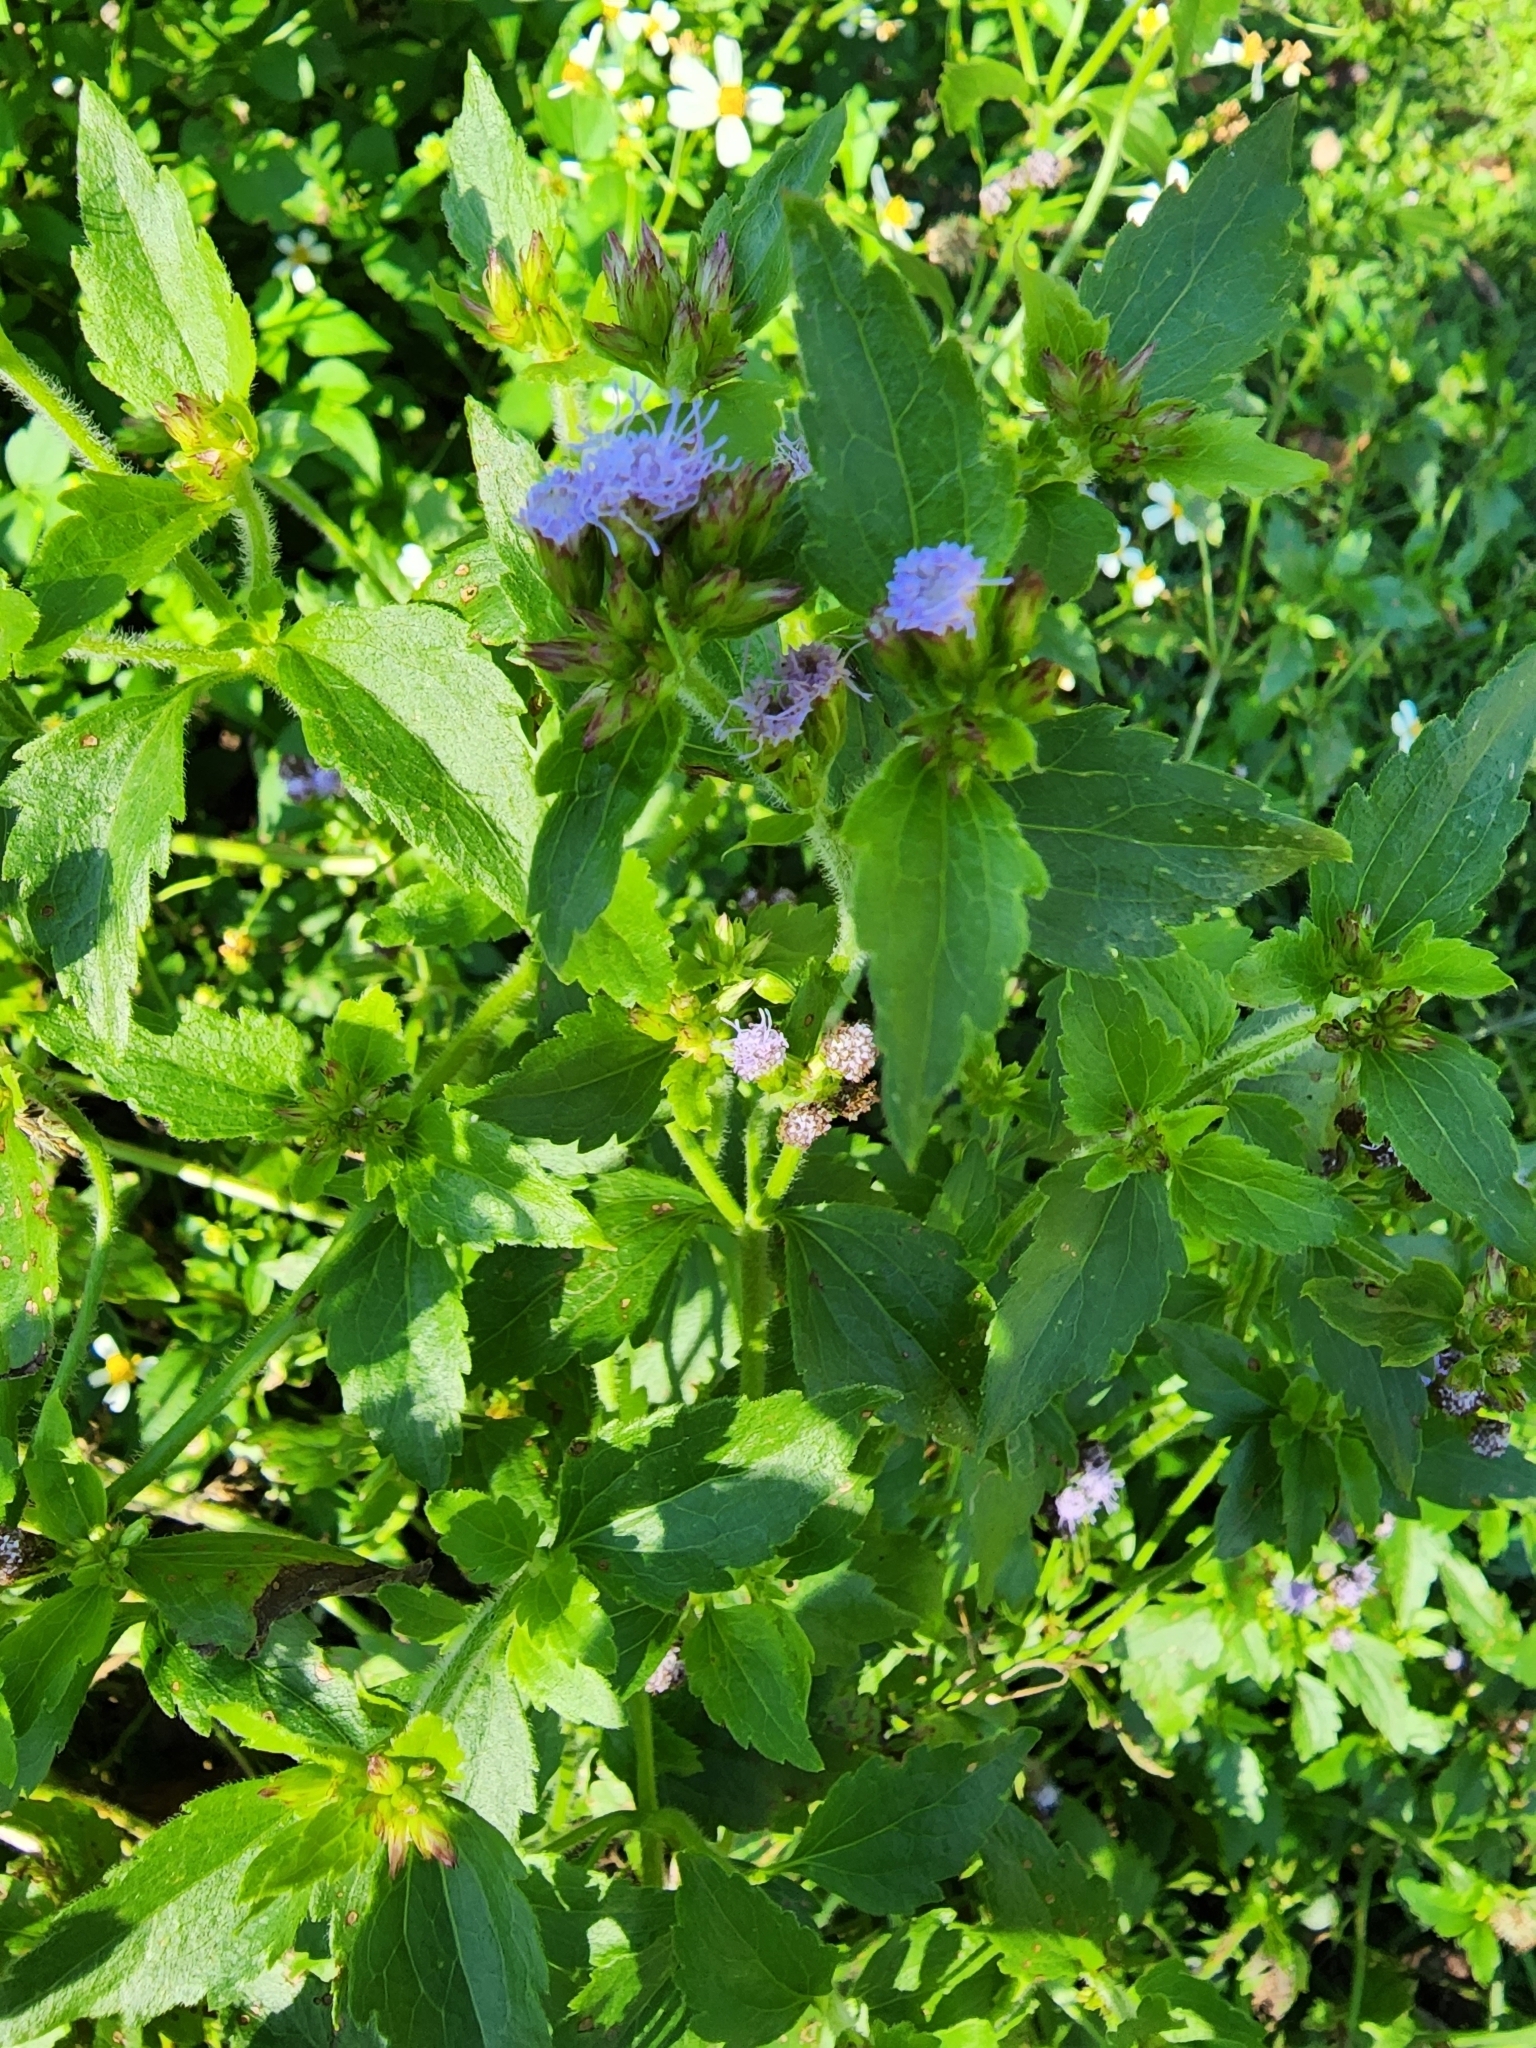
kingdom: Plantae
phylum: Tracheophyta
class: Magnoliopsida
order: Asterales
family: Asteraceae
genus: Conoclinium
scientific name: Conoclinium coelestinum
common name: Blue mistflower
